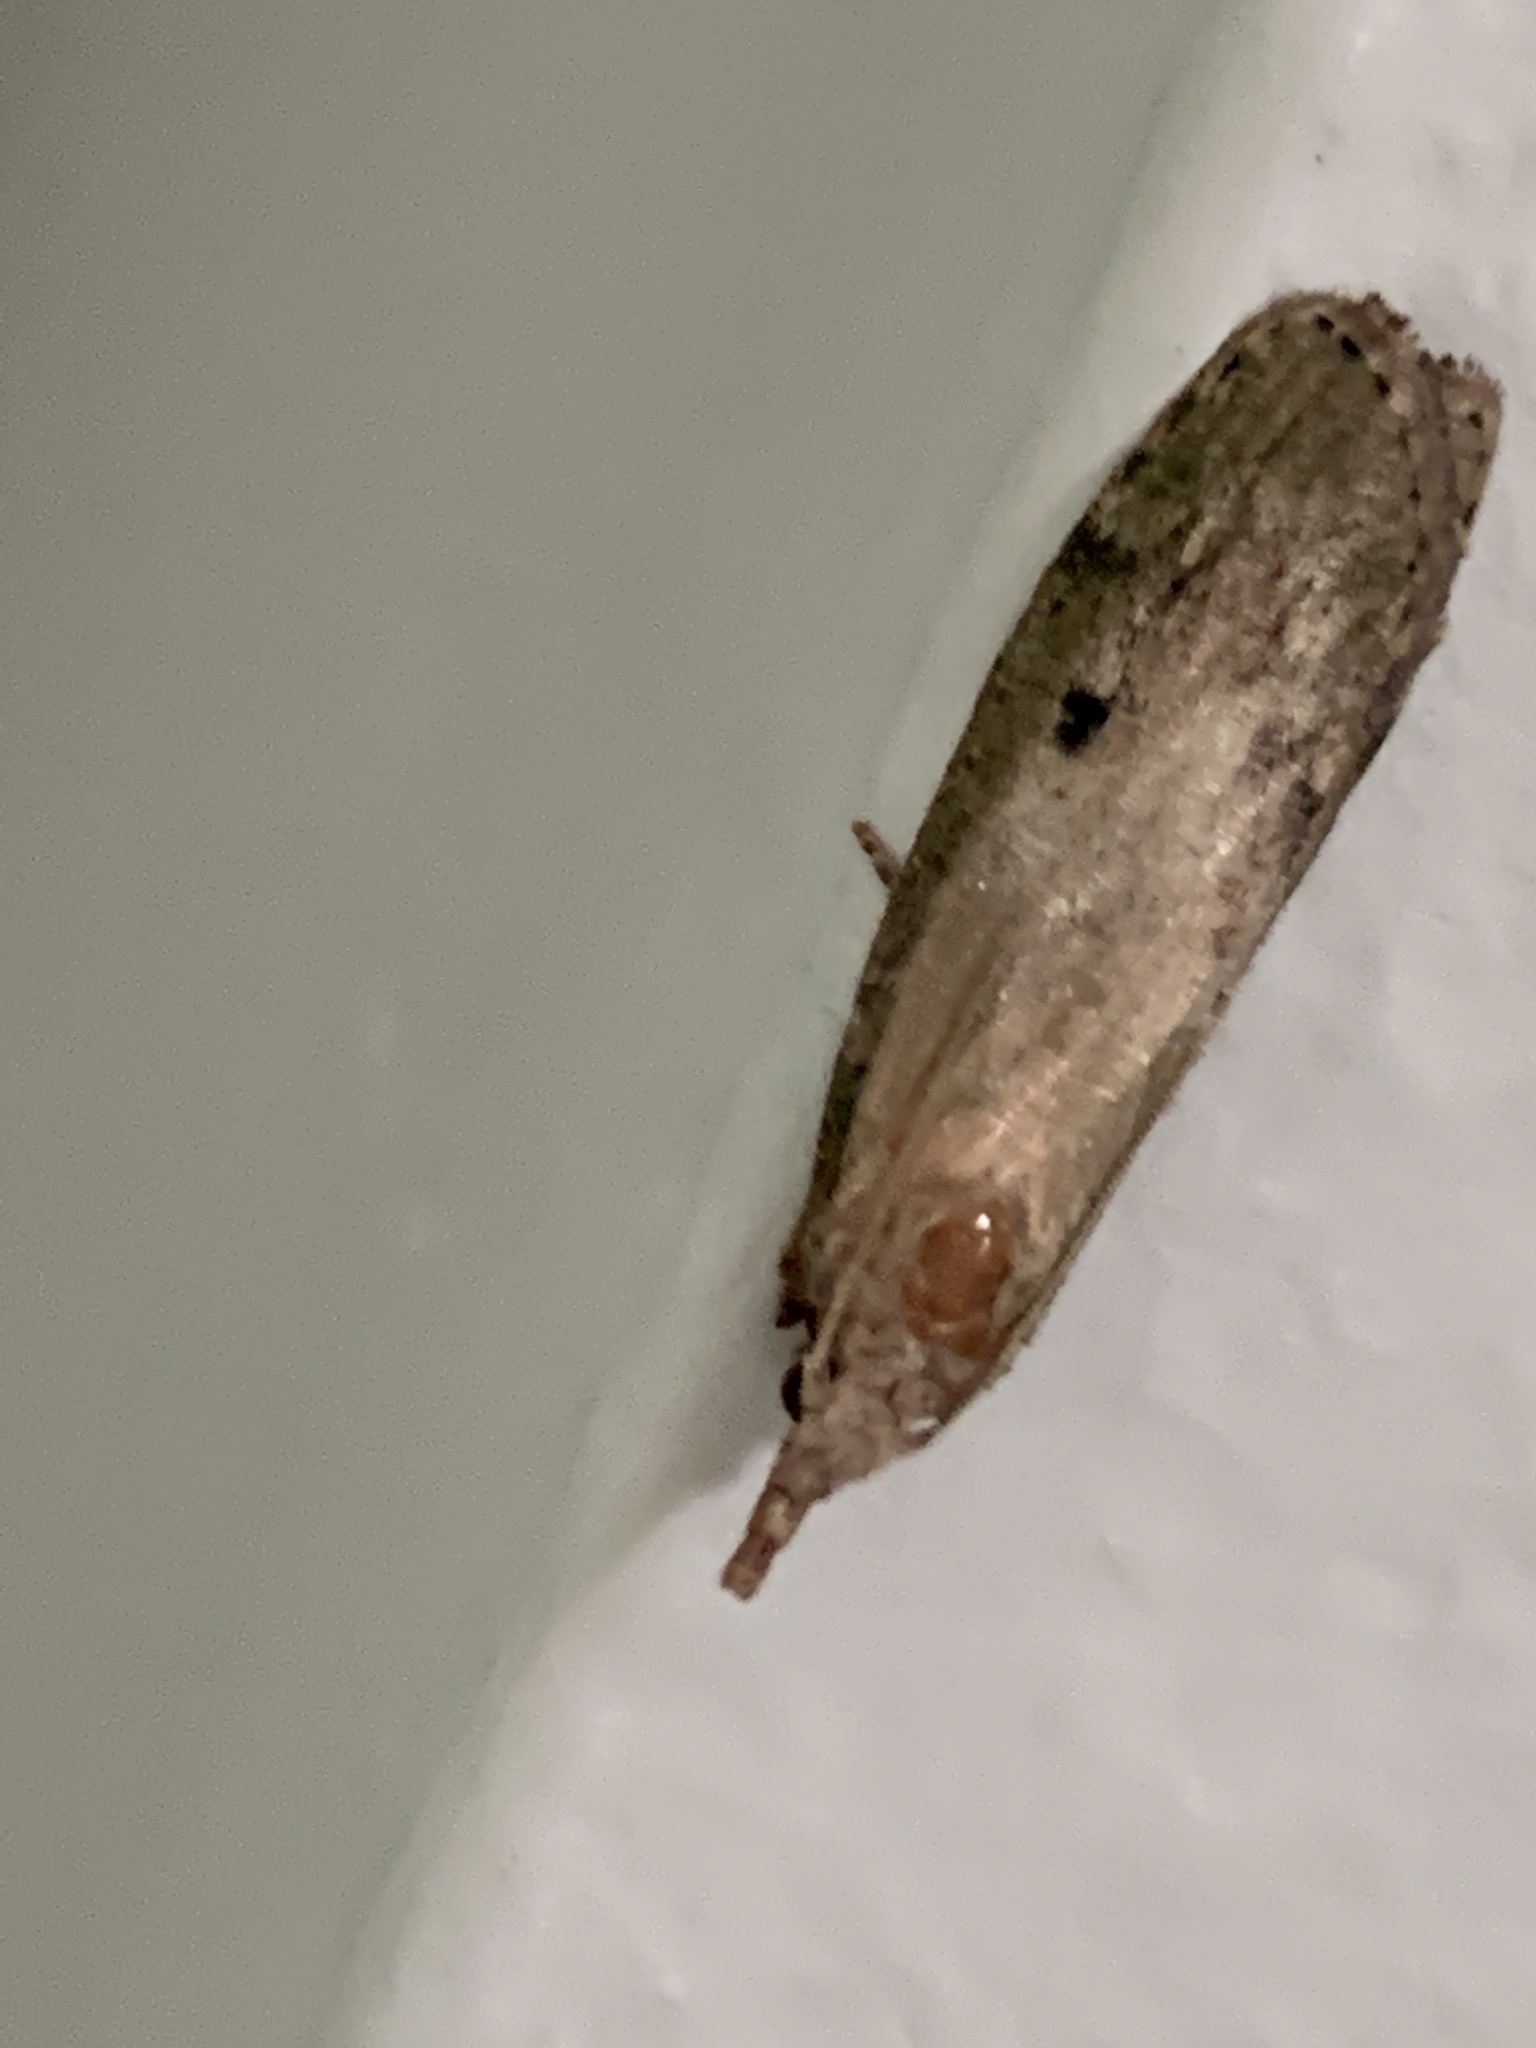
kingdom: Animalia
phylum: Arthropoda
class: Insecta
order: Lepidoptera
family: Pyralidae
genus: Aphomia
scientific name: Aphomia sociella
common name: Bee moth
